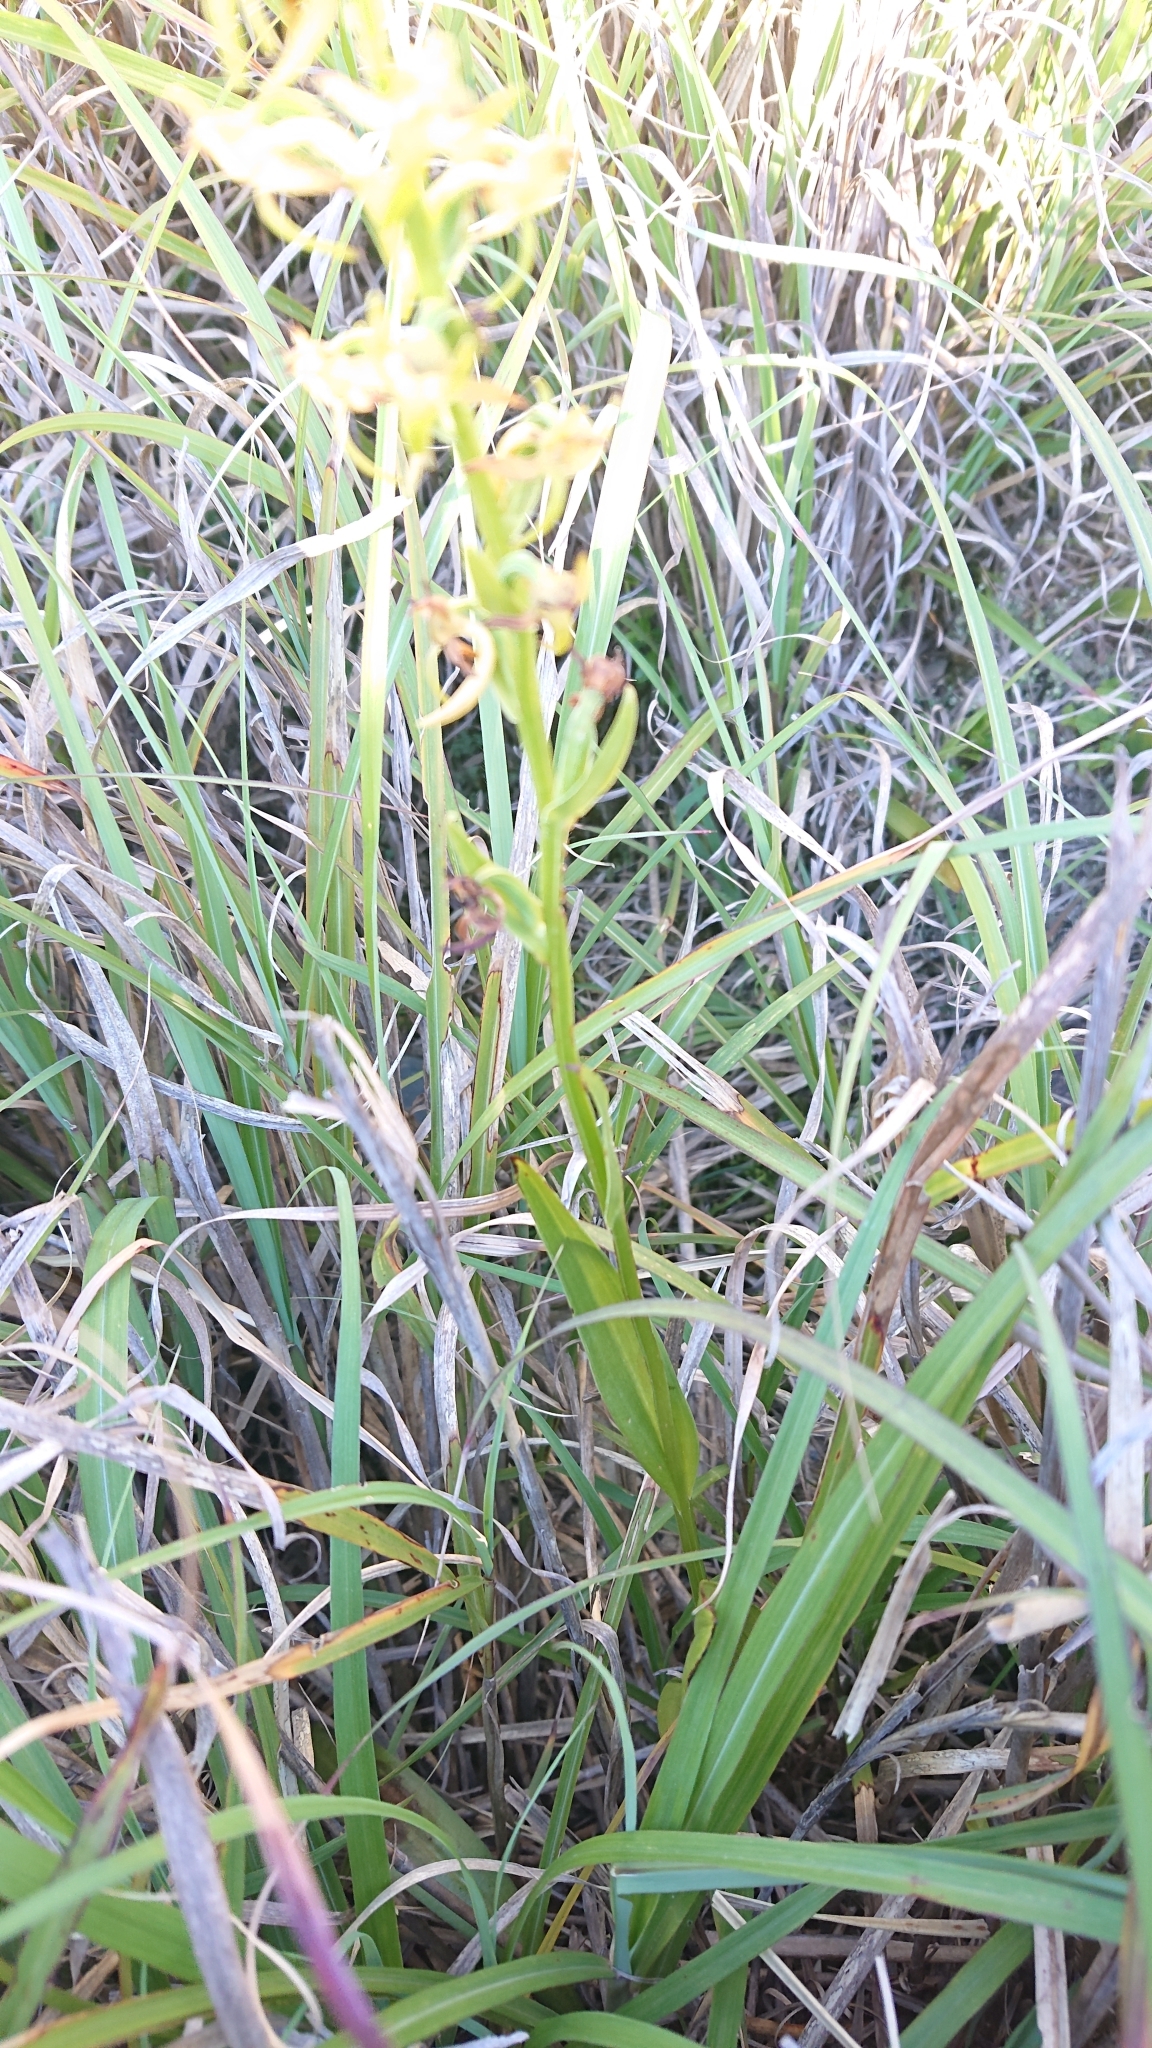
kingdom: Plantae
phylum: Tracheophyta
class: Liliopsida
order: Asparagales
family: Orchidaceae
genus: Platanthera
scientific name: Platanthera pachyglossa
